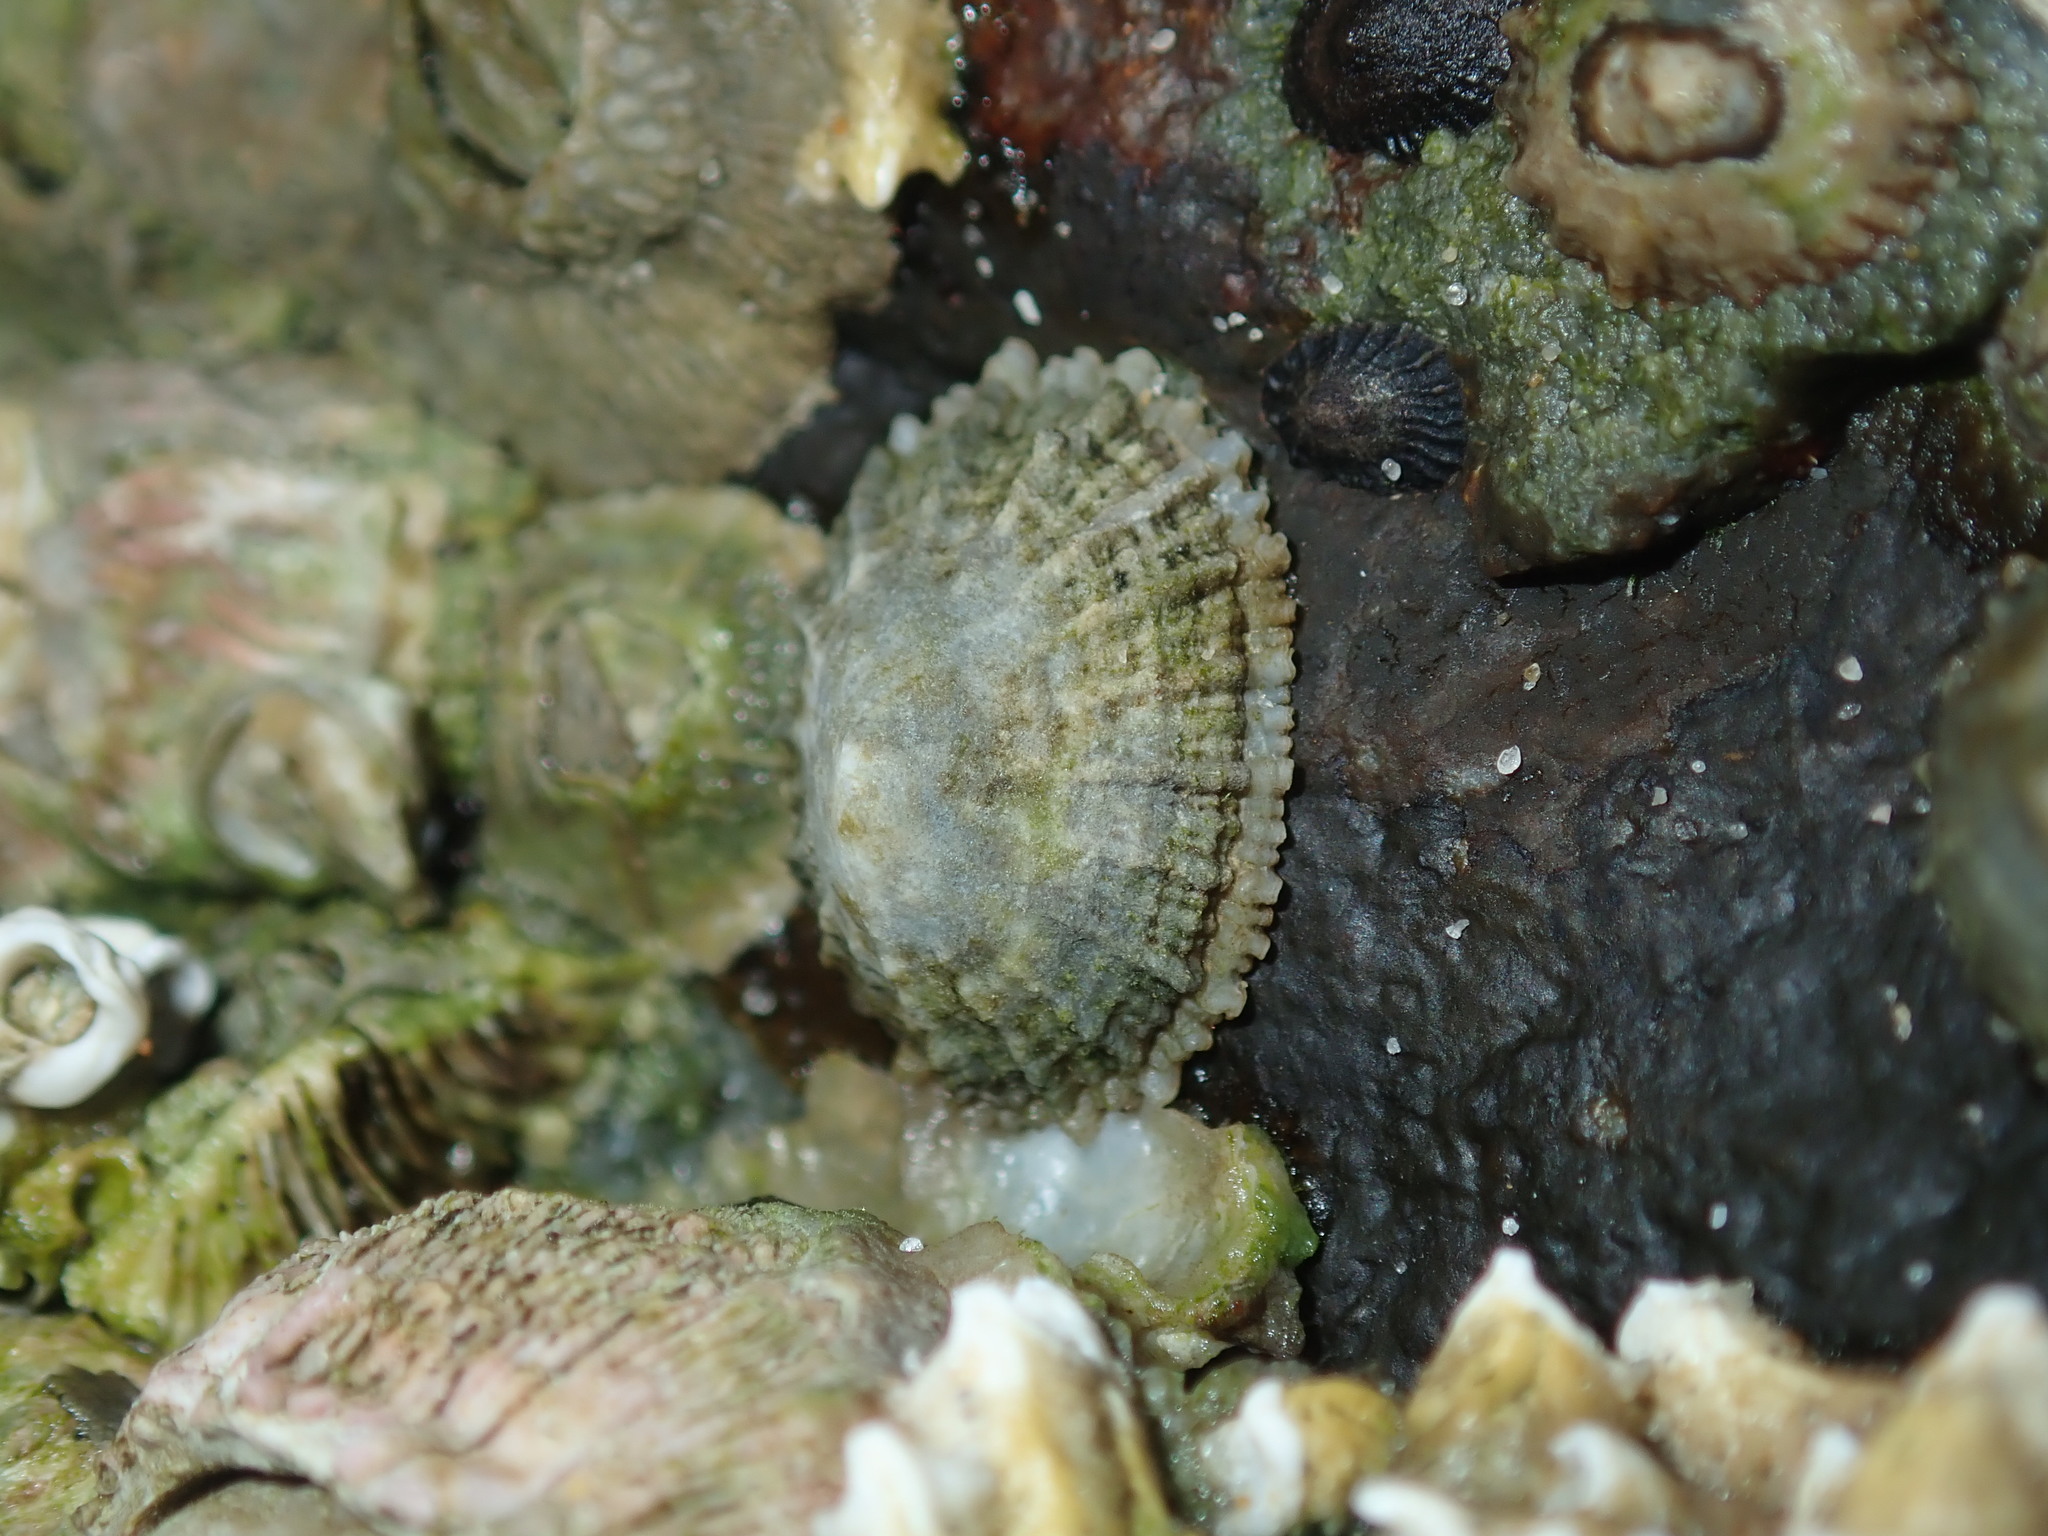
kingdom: Animalia
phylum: Mollusca
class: Gastropoda
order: Lepetellida
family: Fissurellidae
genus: Montfortula
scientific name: Montfortula rugosa
